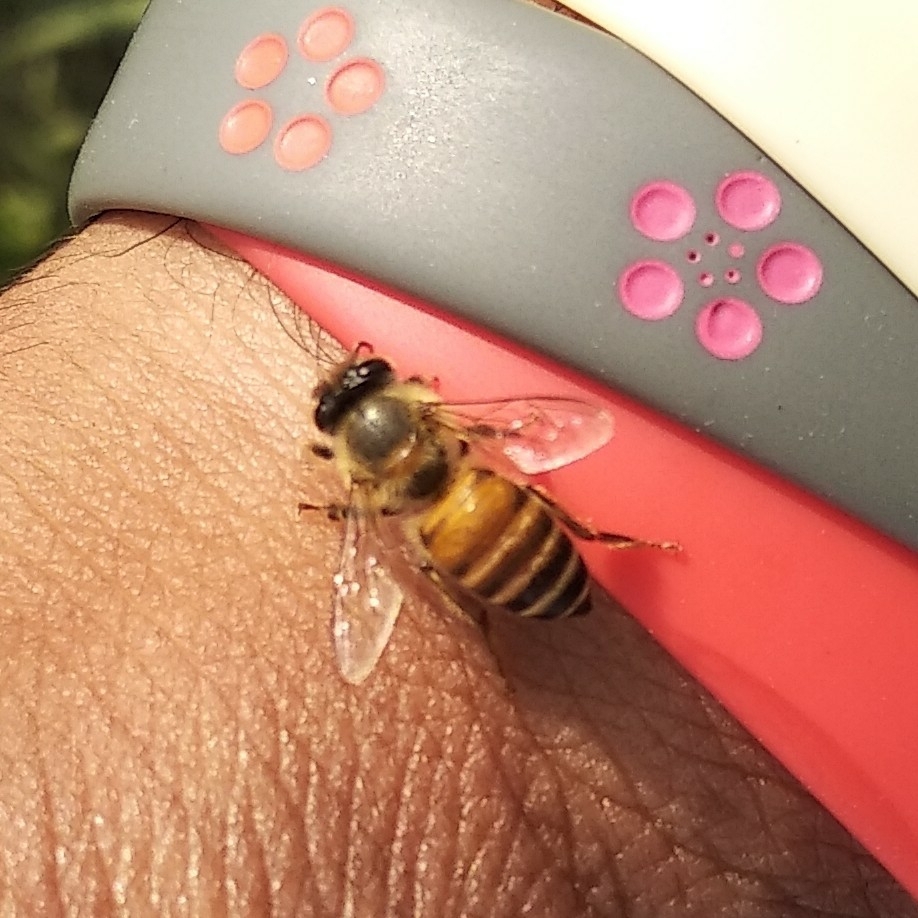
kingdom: Animalia
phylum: Arthropoda
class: Insecta
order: Hymenoptera
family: Apidae
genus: Apis
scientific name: Apis cerana
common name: Honey bee
